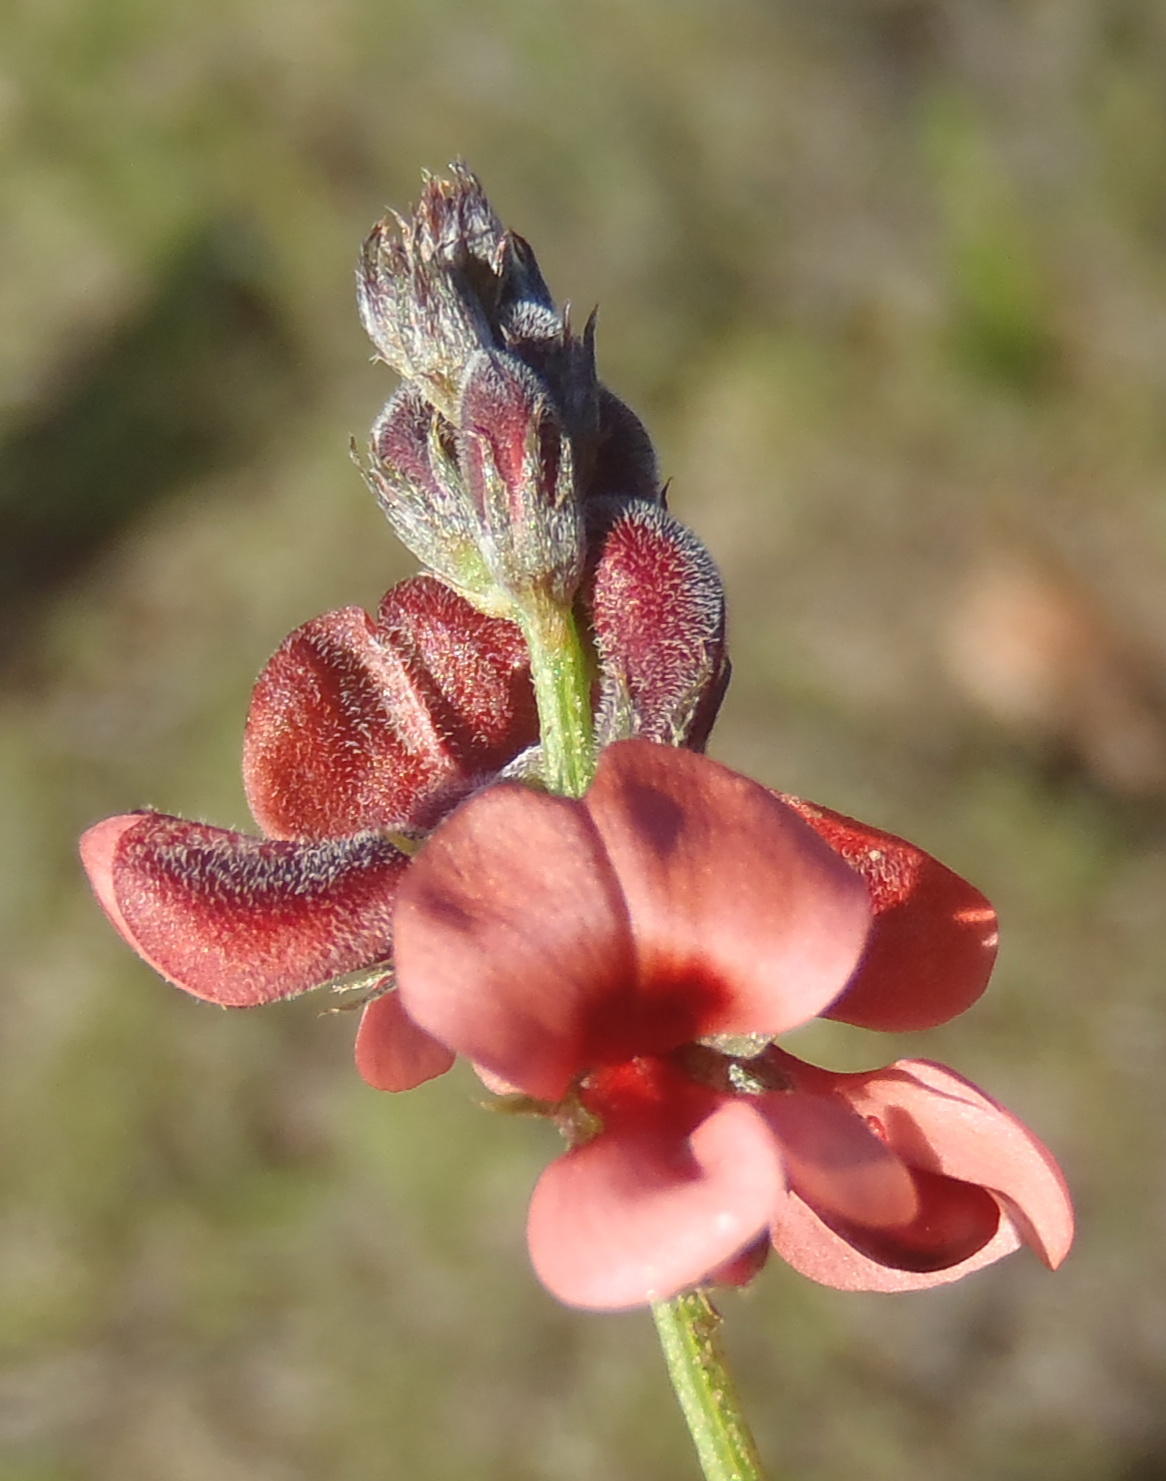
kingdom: Plantae
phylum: Tracheophyta
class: Magnoliopsida
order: Fabales
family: Fabaceae
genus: Indigofera
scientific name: Indigofera heterophylla
